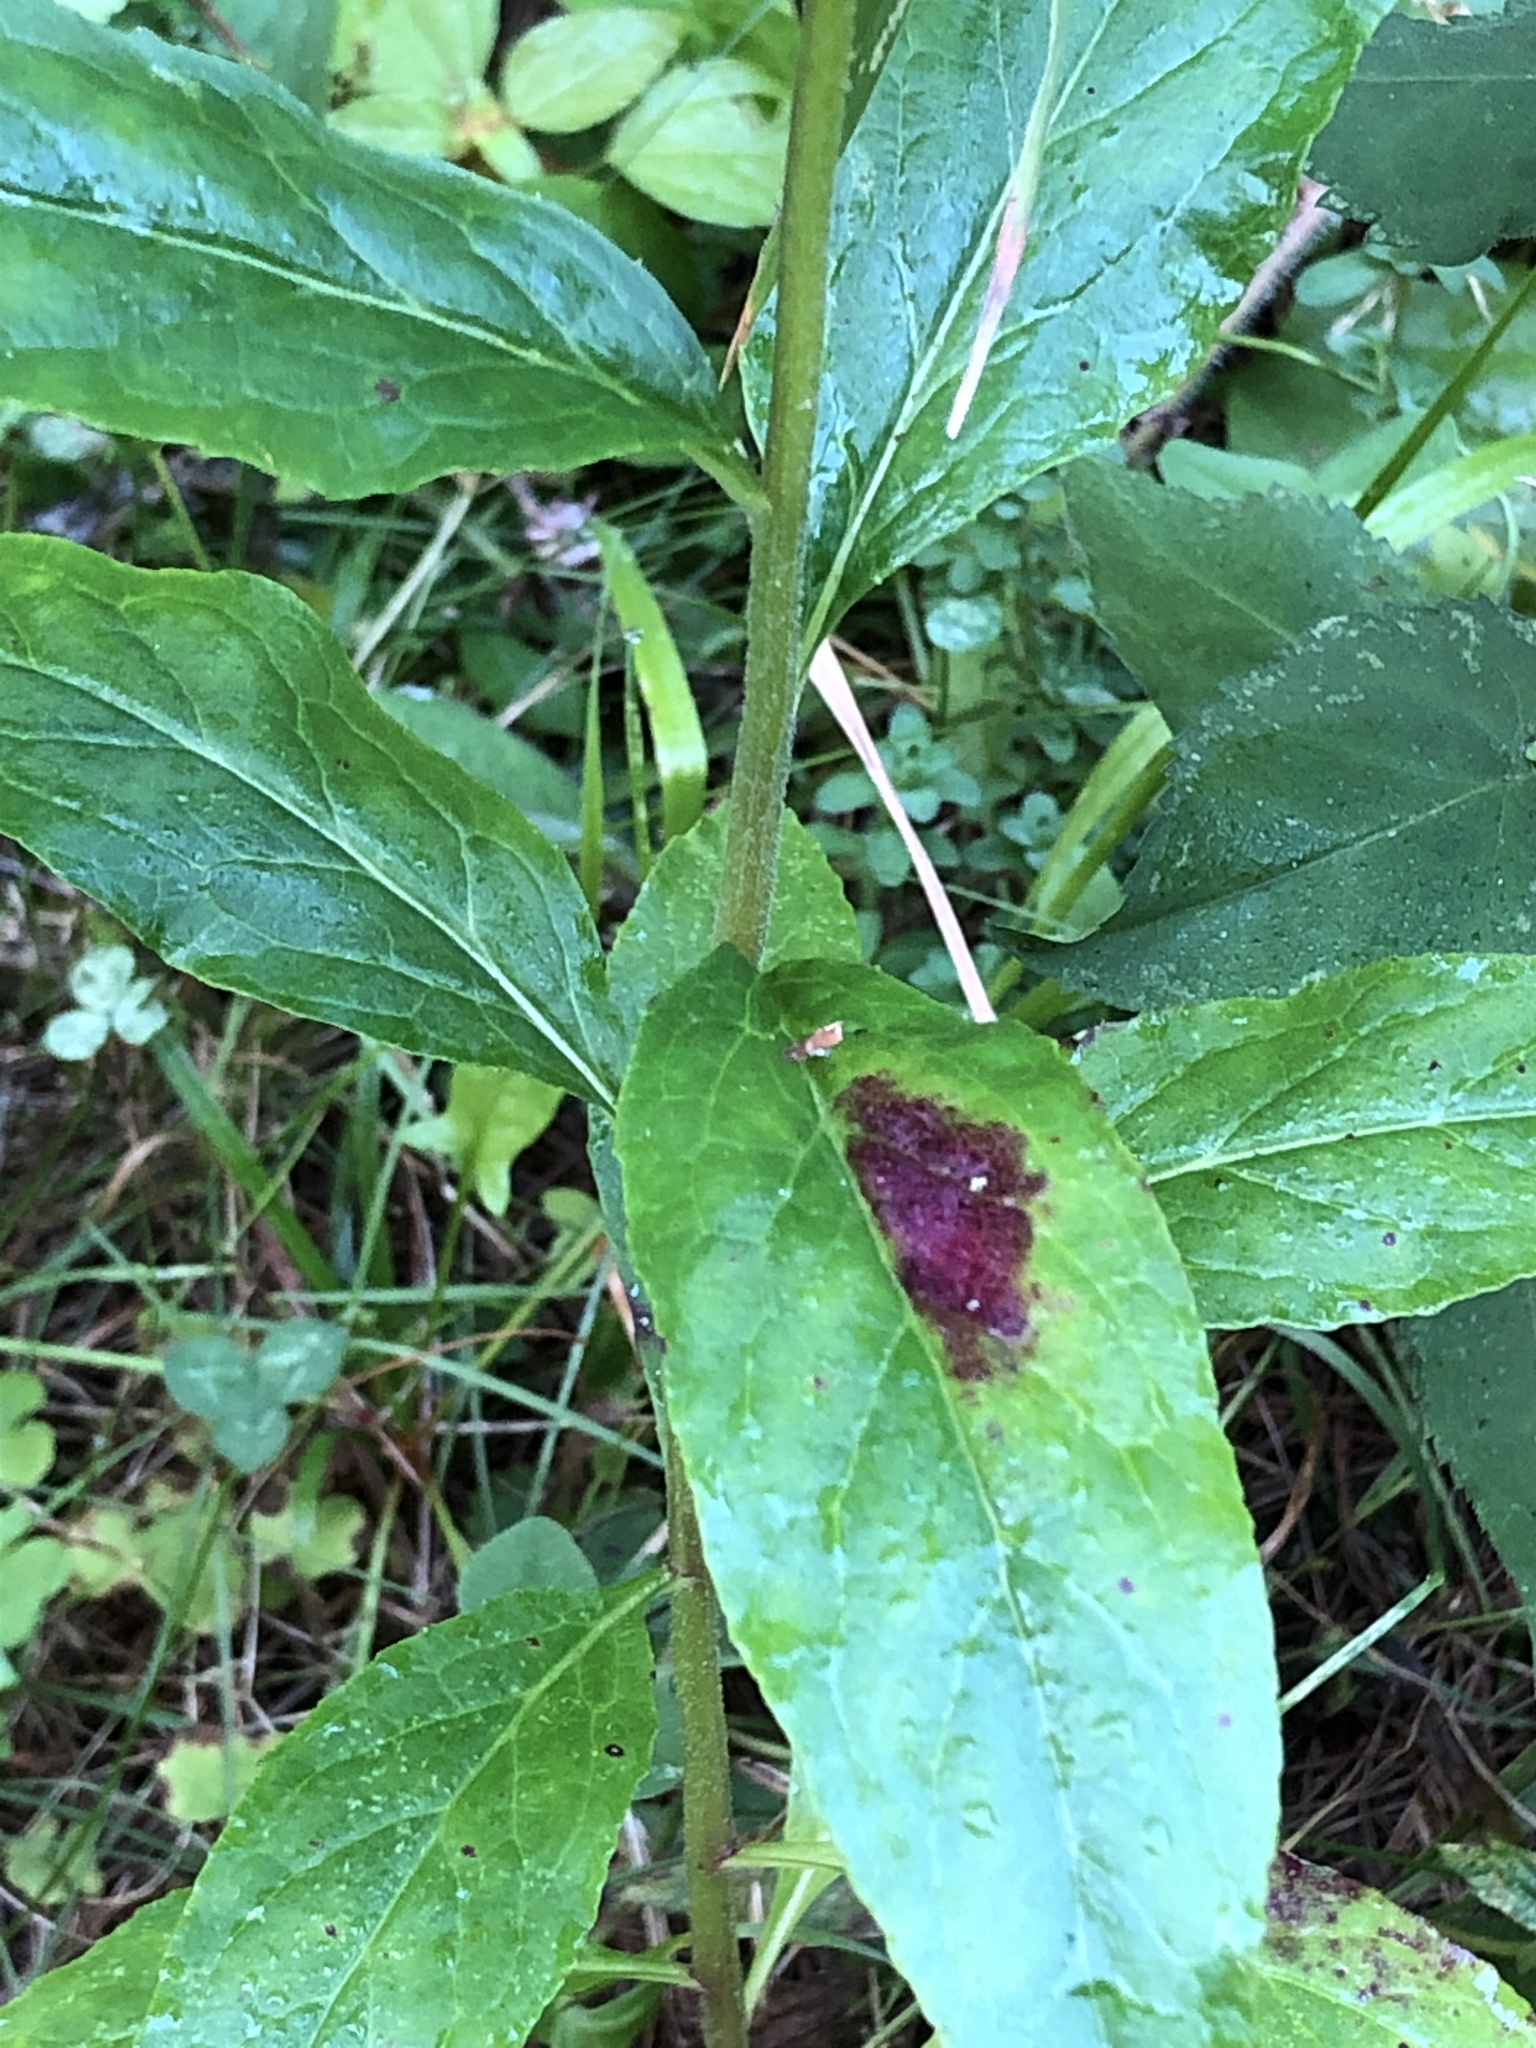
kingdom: Plantae
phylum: Tracheophyta
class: Magnoliopsida
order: Asterales
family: Campanulaceae
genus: Lobelia
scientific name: Lobelia cardinalis
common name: Cardinal flower
